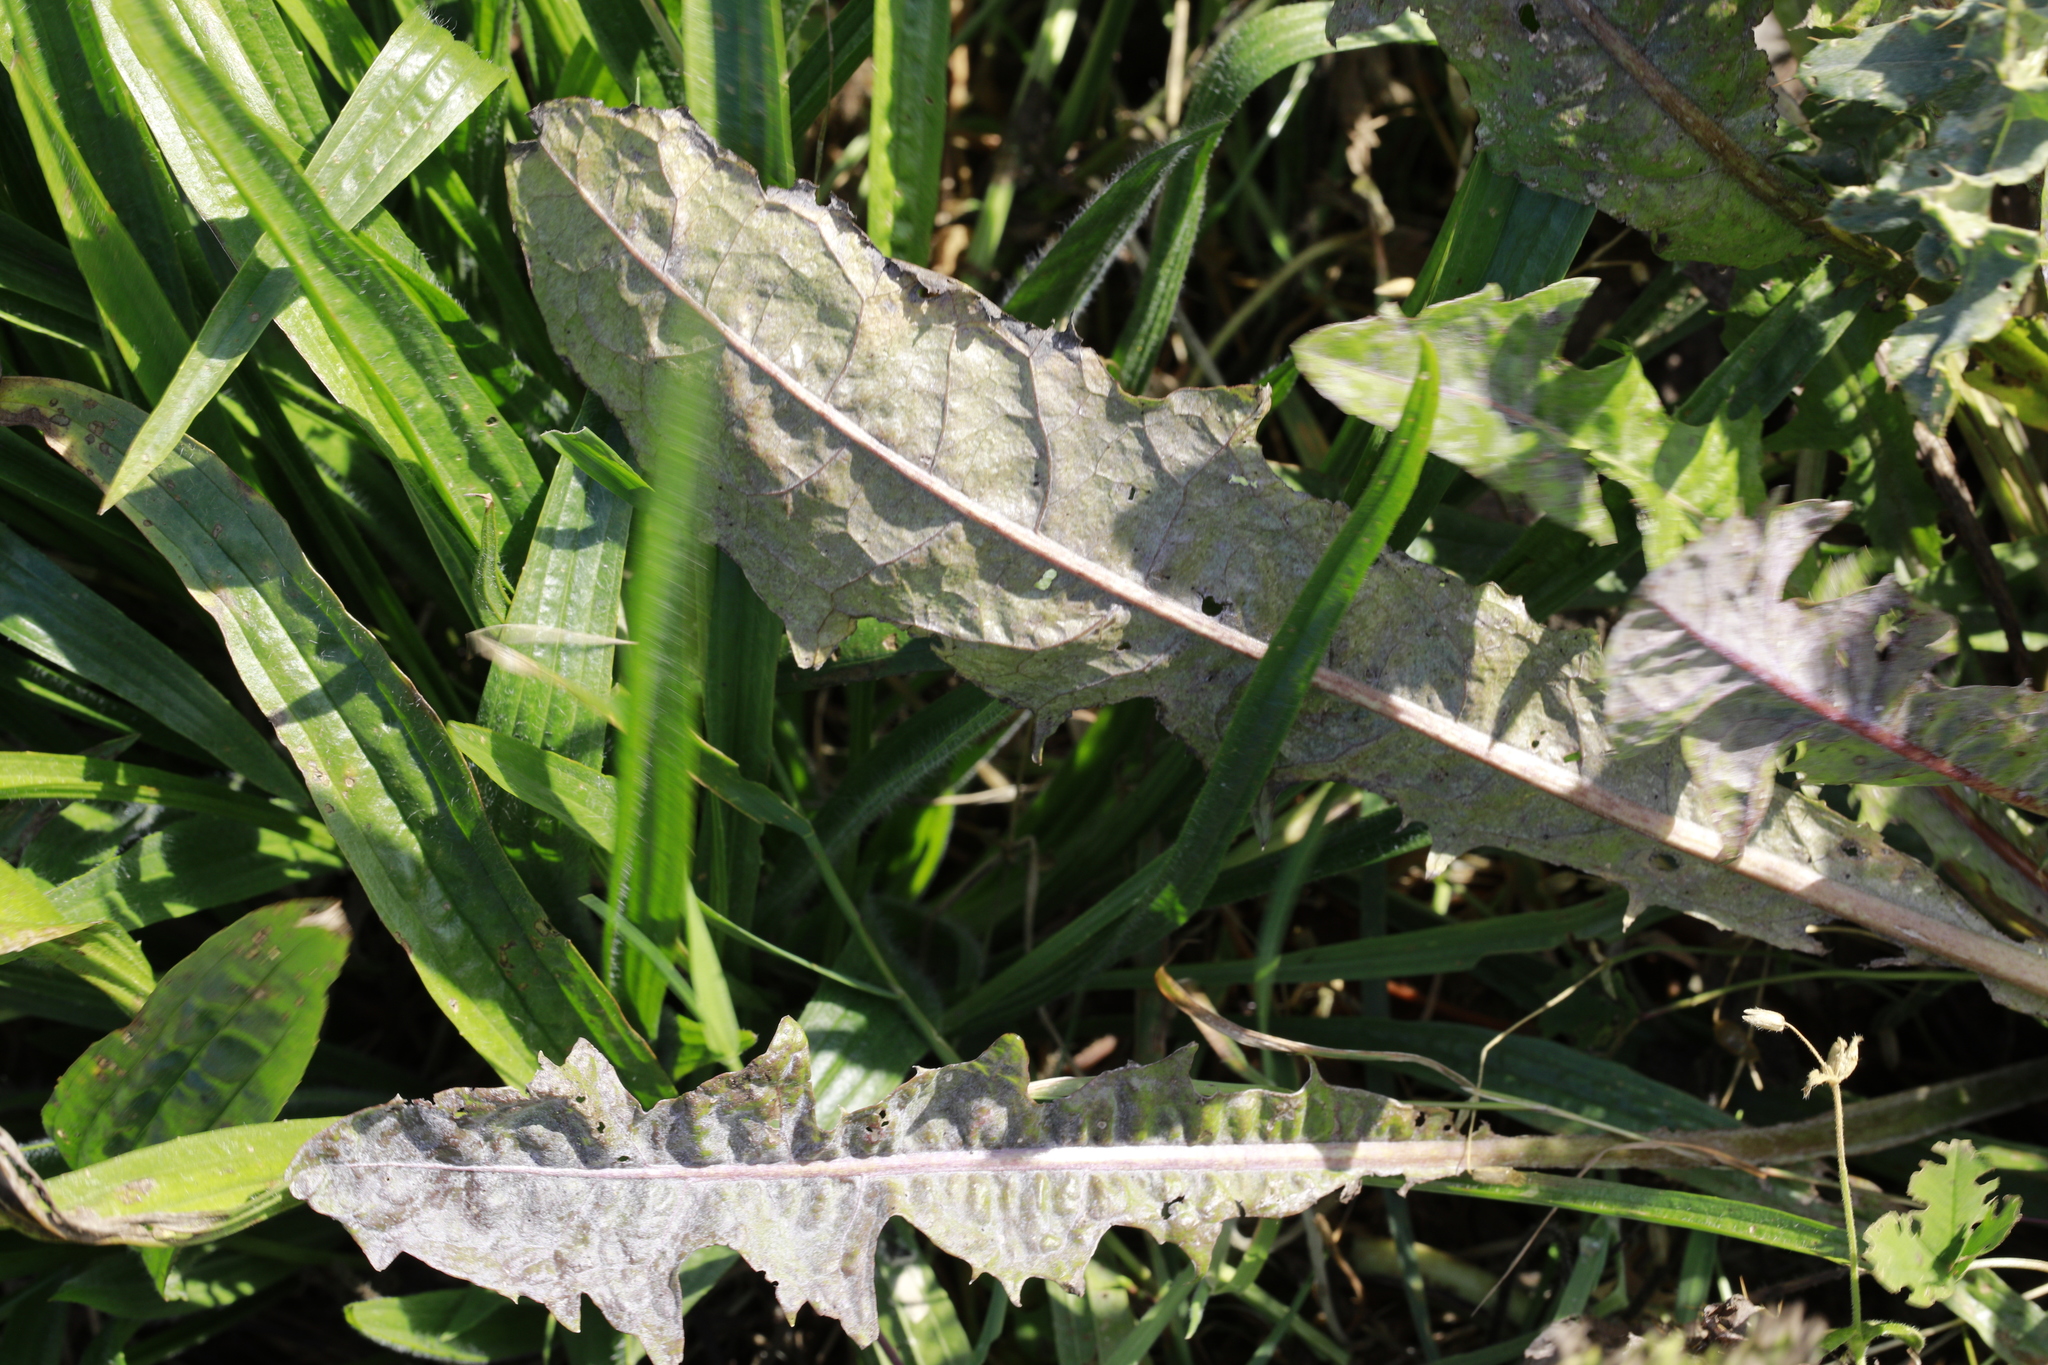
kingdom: Plantae
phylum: Tracheophyta
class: Magnoliopsida
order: Asterales
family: Asteraceae
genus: Taraxacum
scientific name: Taraxacum officinale
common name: Common dandelion
